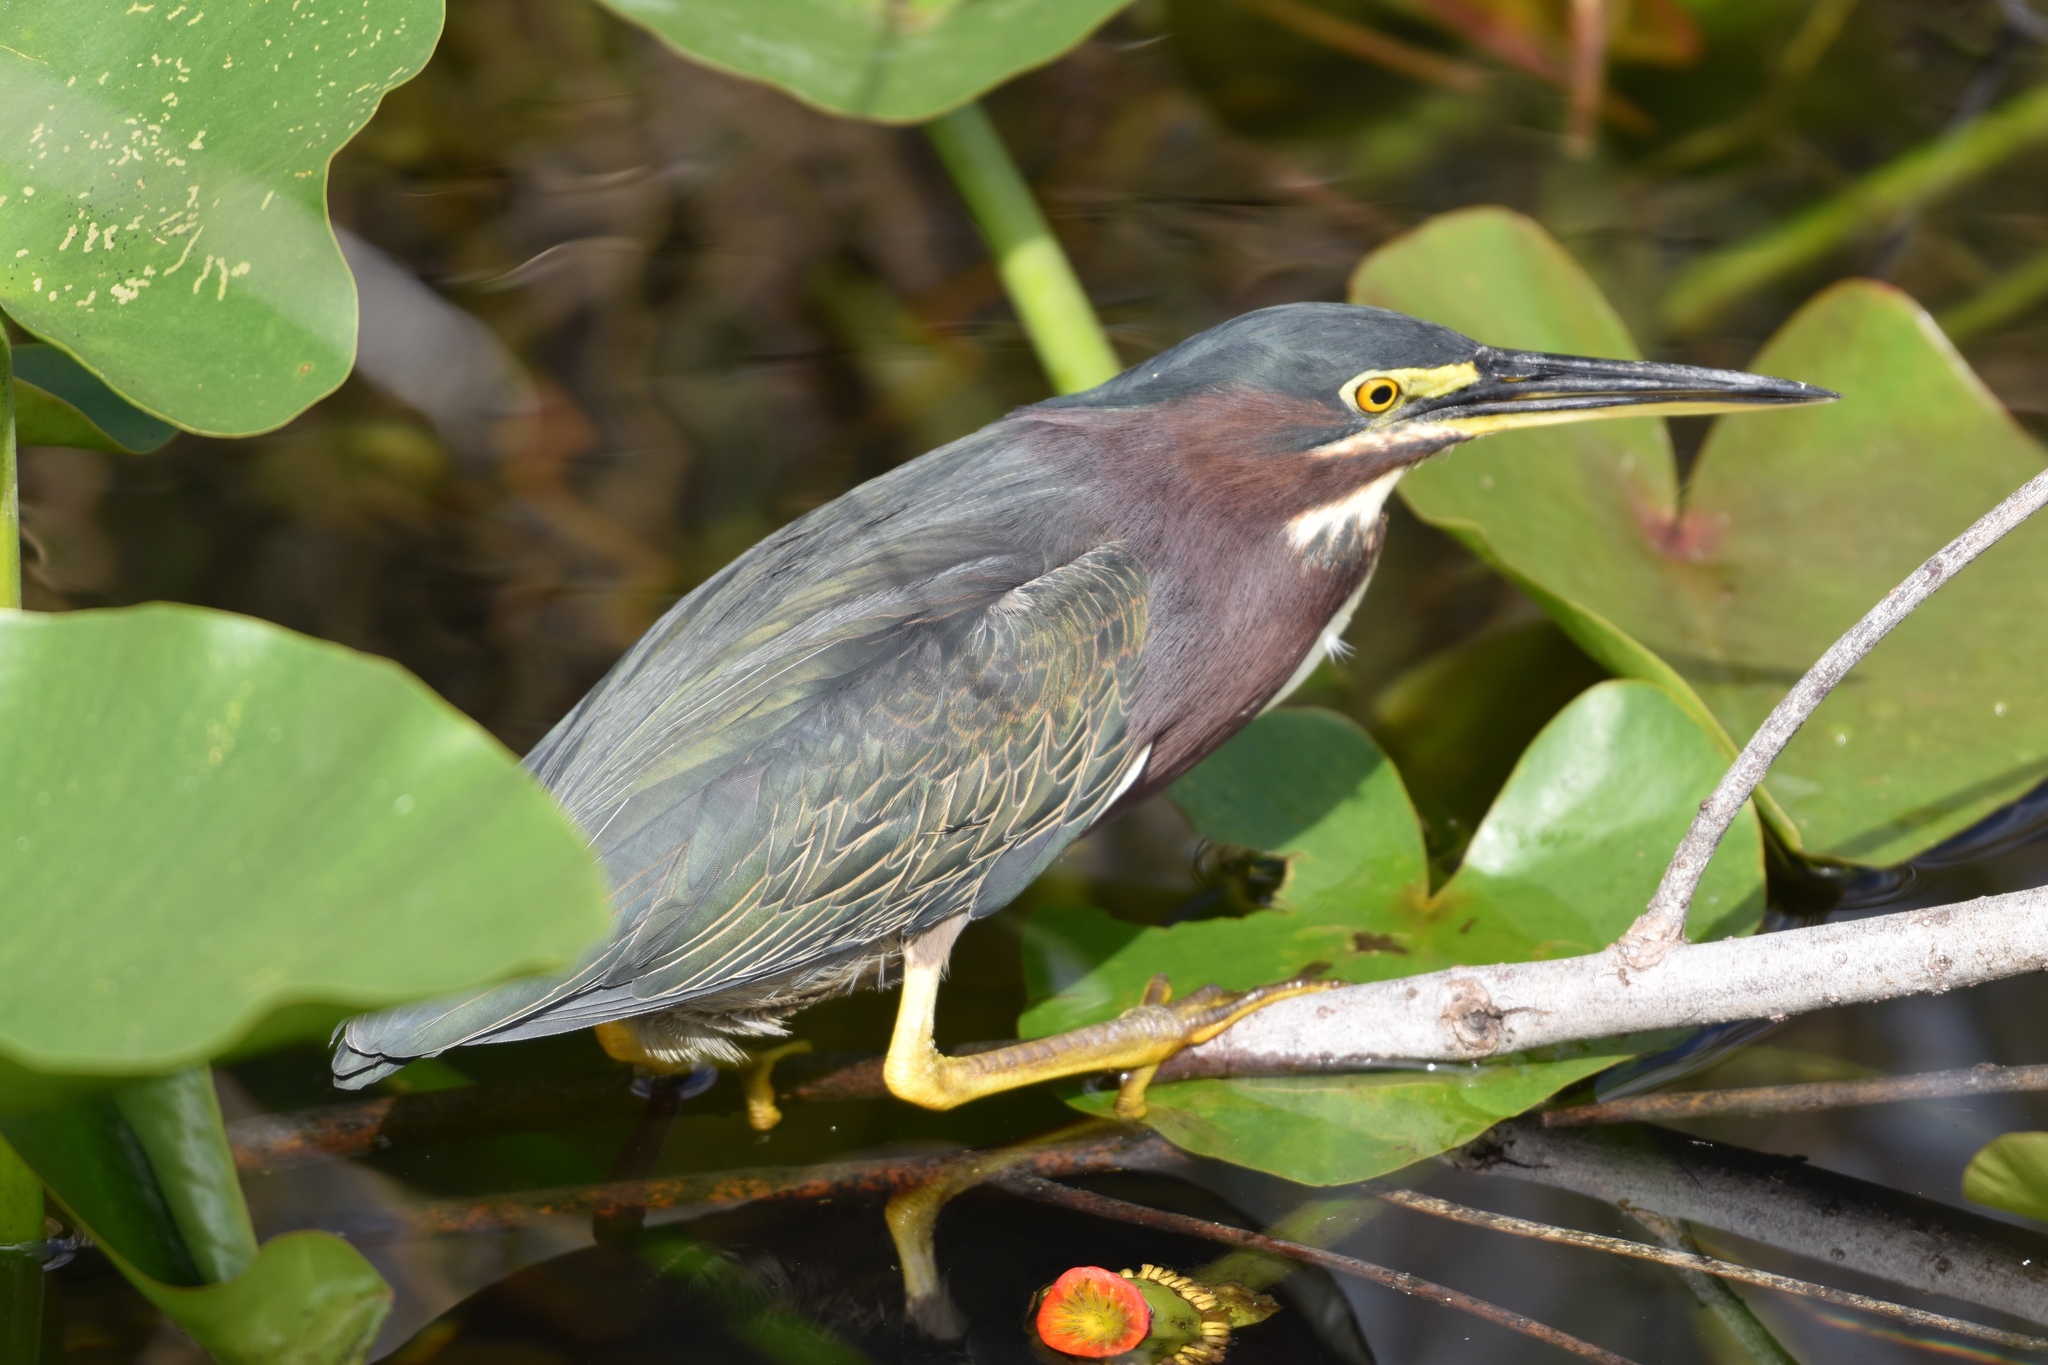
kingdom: Animalia
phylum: Chordata
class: Aves
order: Pelecaniformes
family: Ardeidae
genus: Butorides
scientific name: Butorides virescens
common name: Green heron
